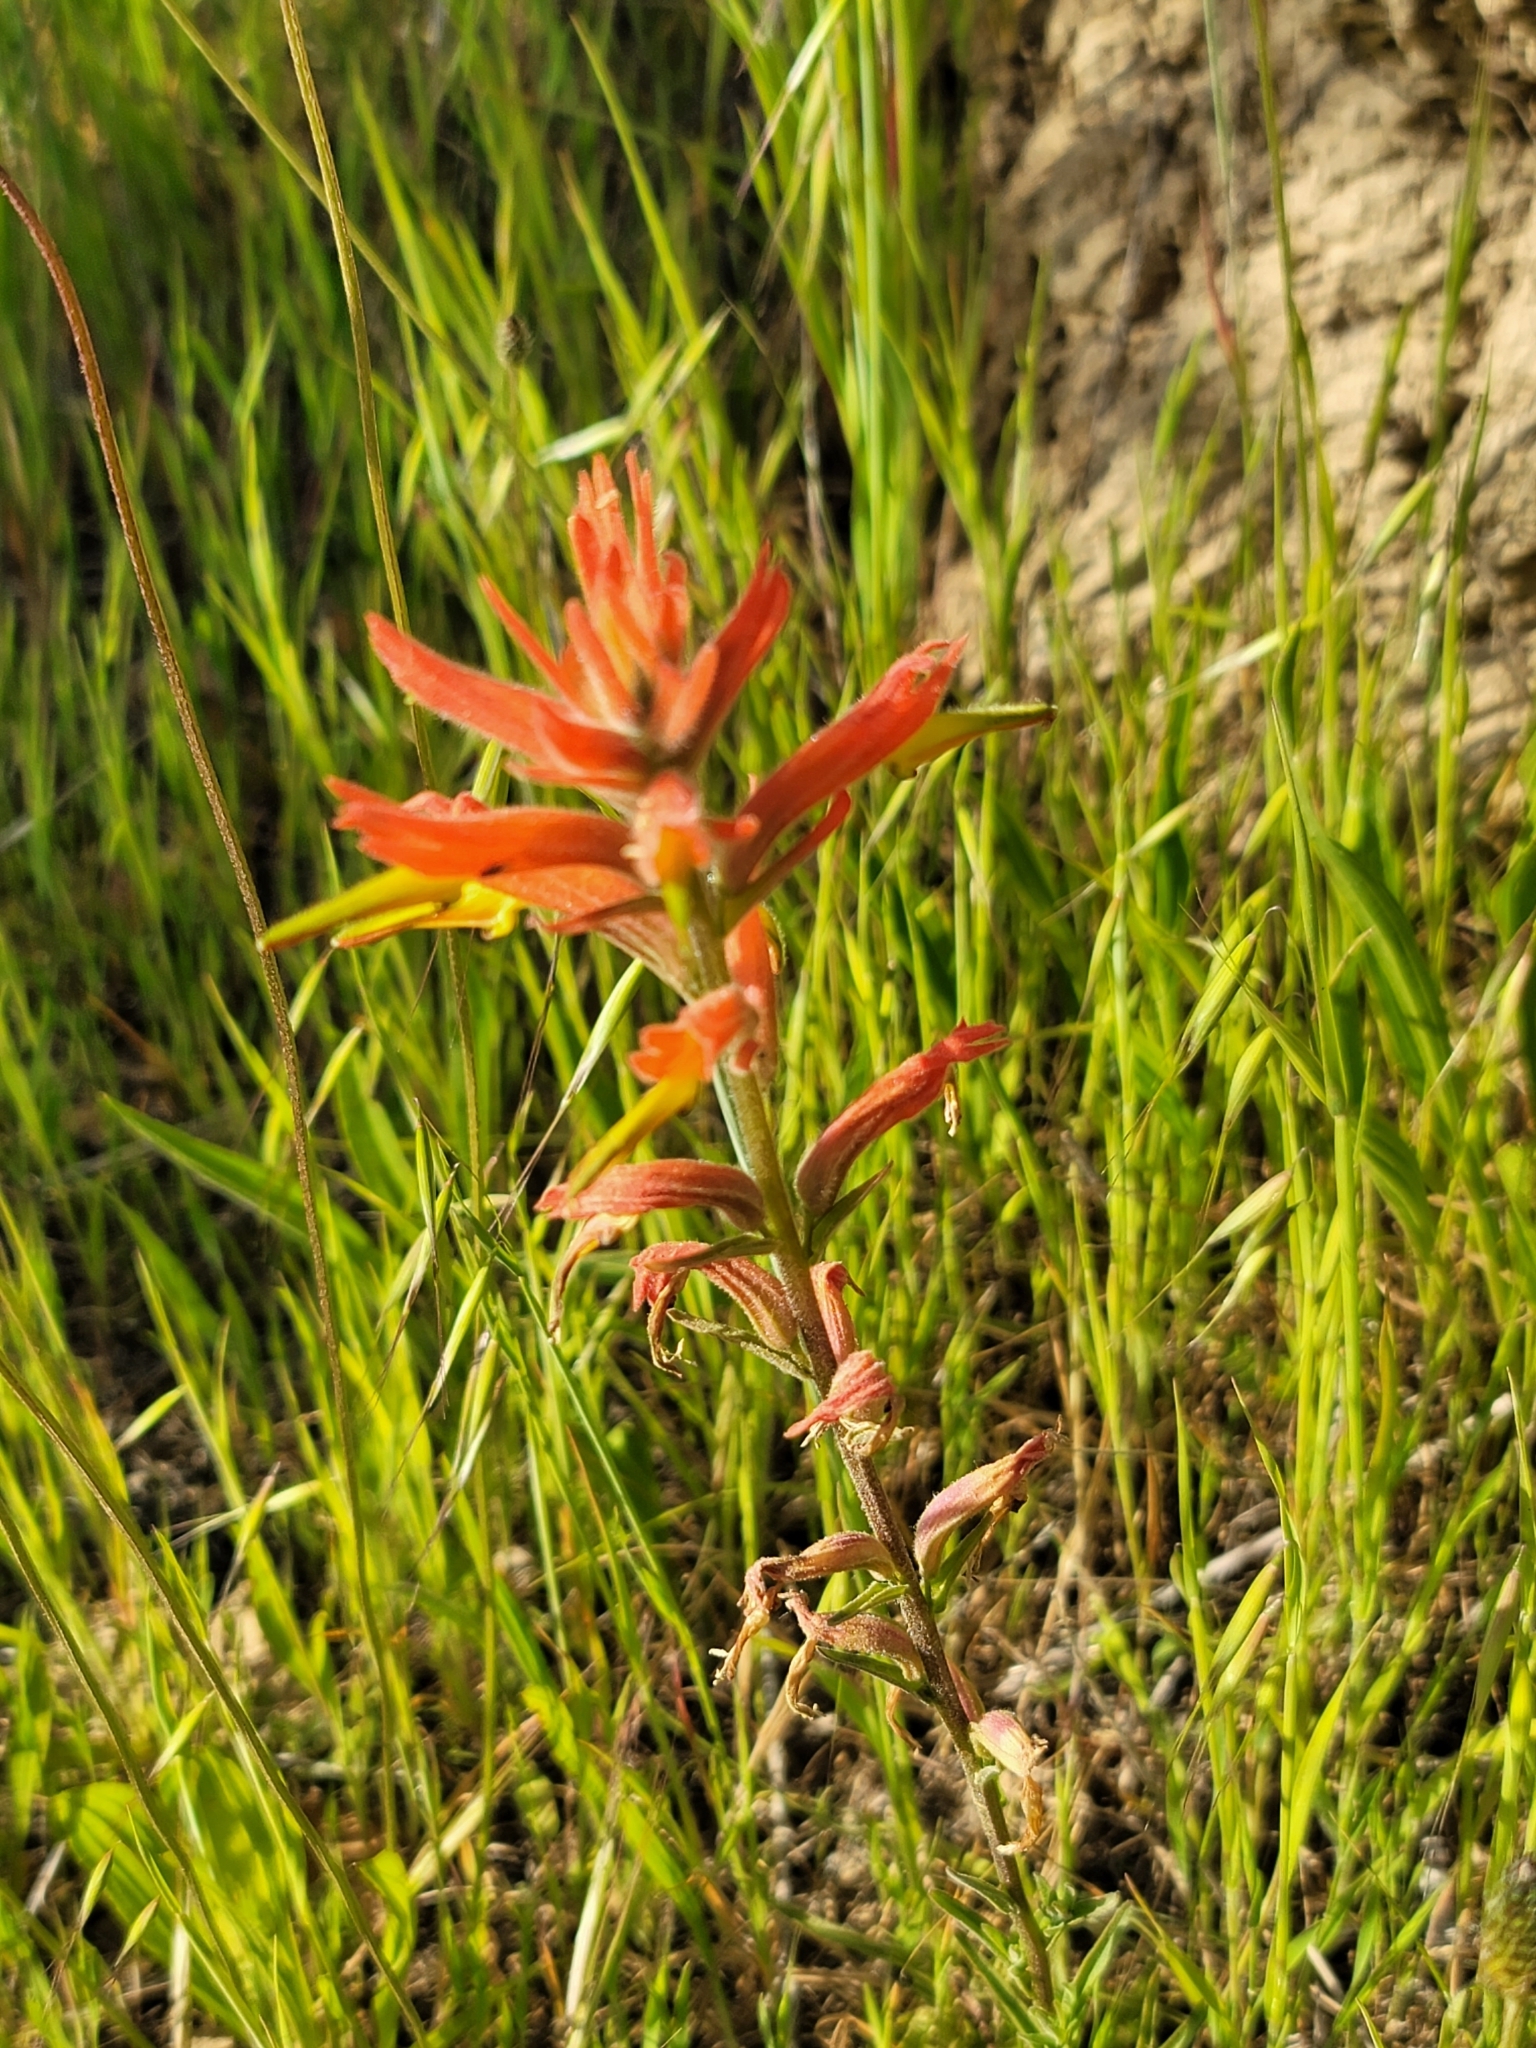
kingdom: Plantae
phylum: Tracheophyta
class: Magnoliopsida
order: Lamiales
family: Orobanchaceae
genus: Castilleja
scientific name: Castilleja subinclusa
